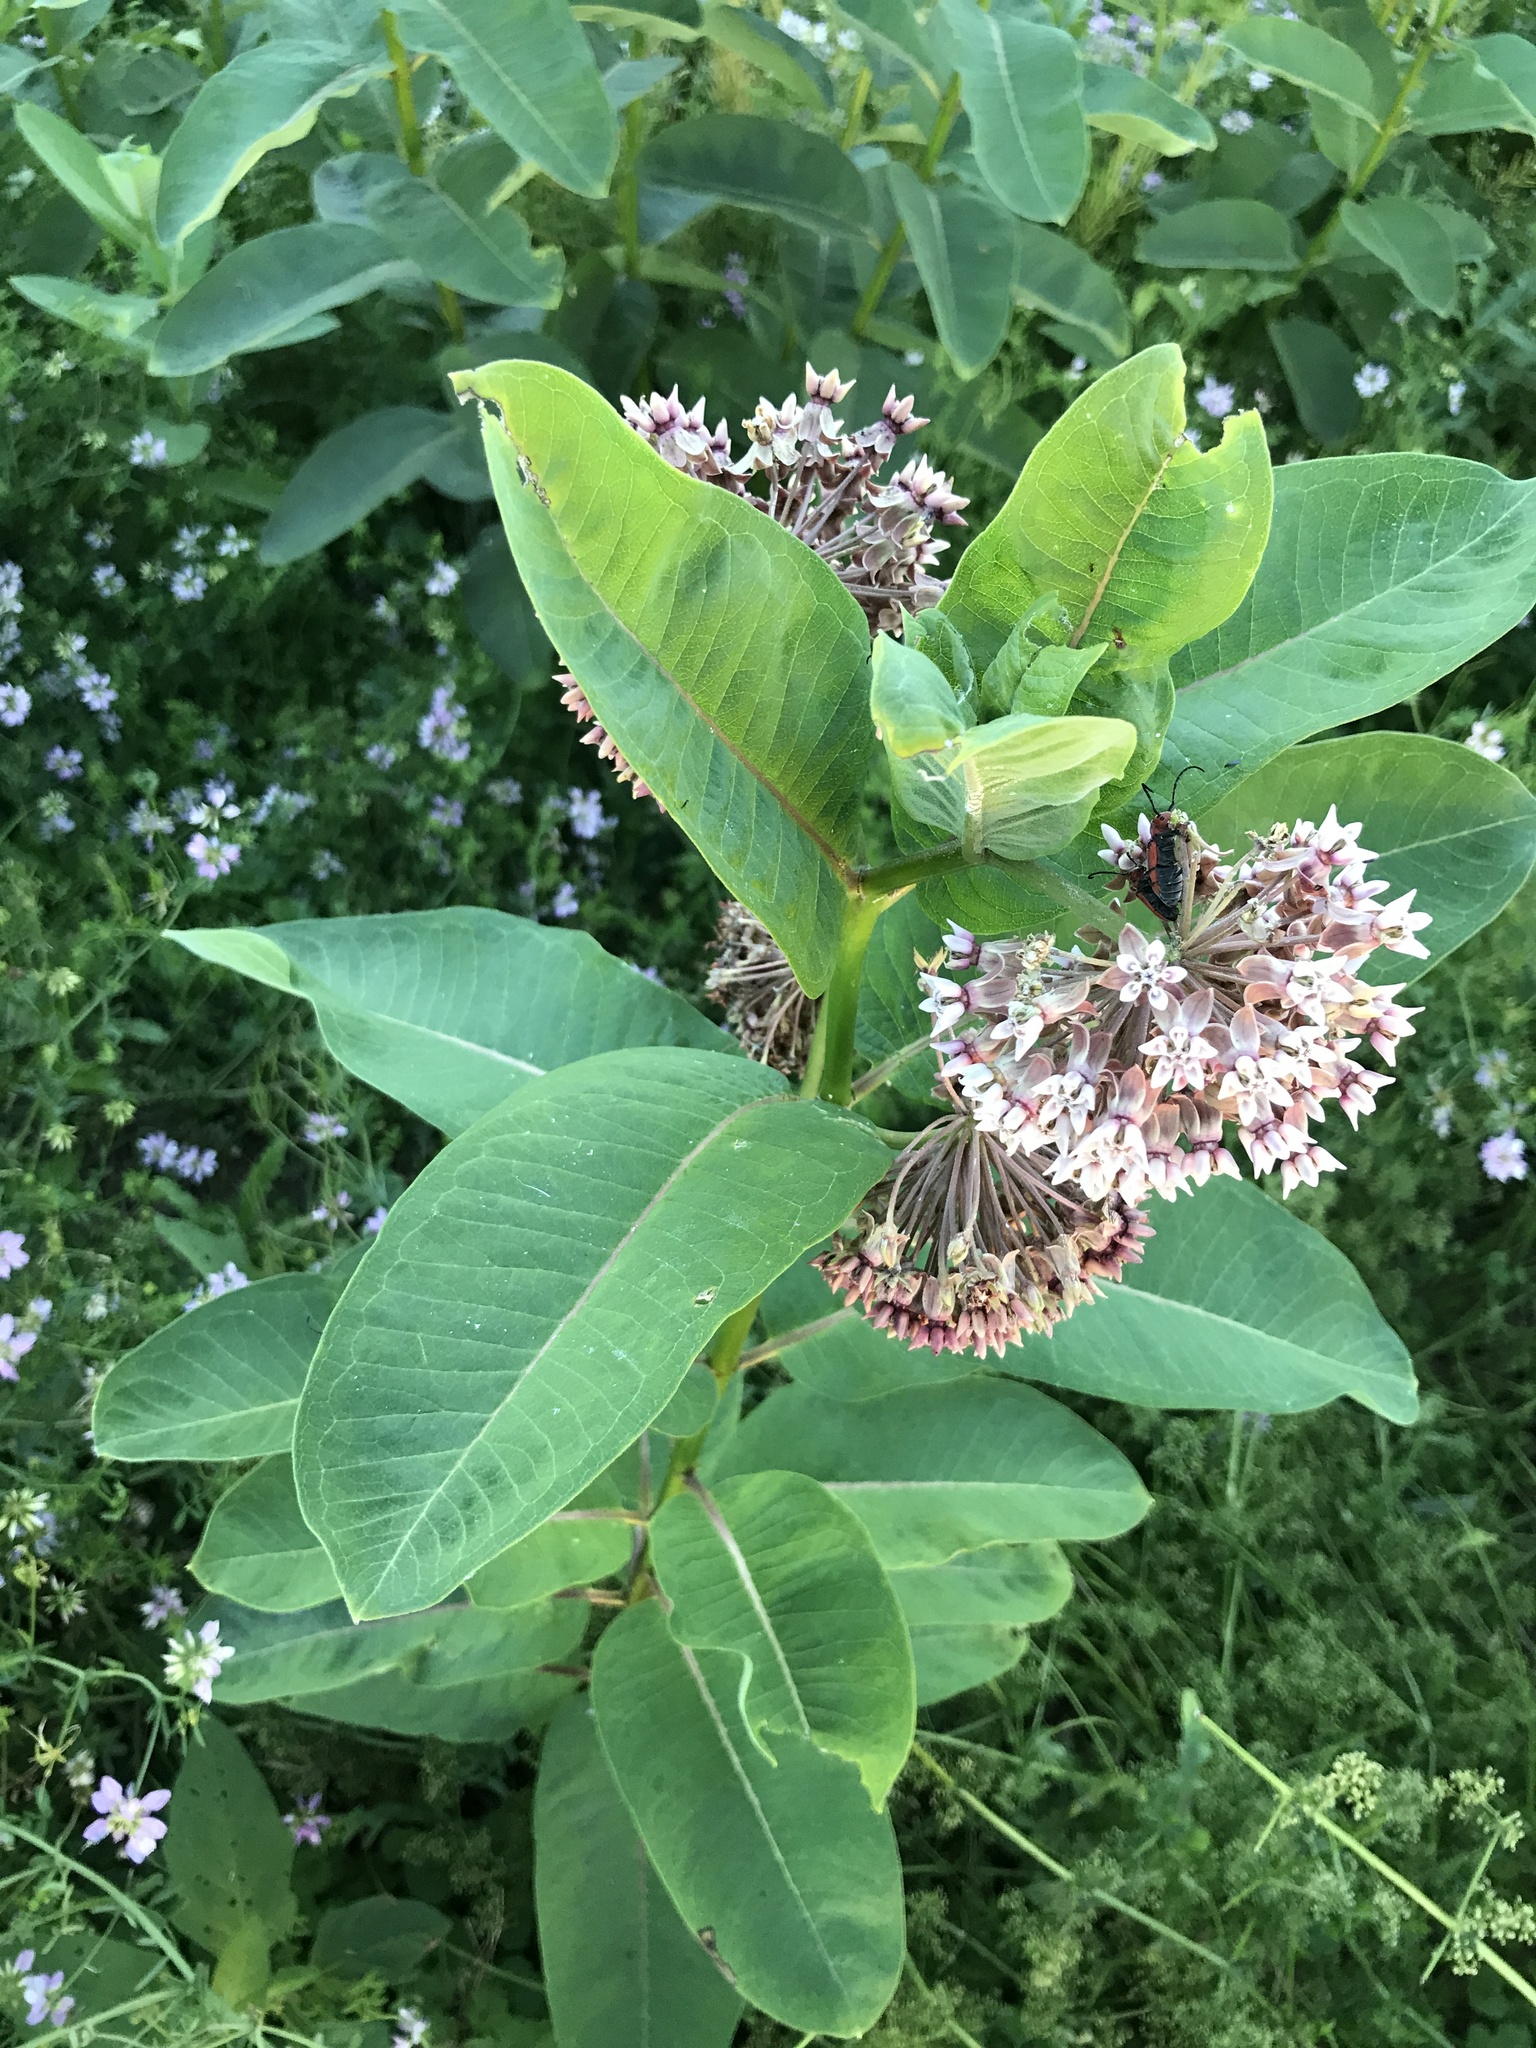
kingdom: Plantae
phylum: Tracheophyta
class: Magnoliopsida
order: Gentianales
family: Apocynaceae
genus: Asclepias
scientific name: Asclepias syriaca
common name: Common milkweed
